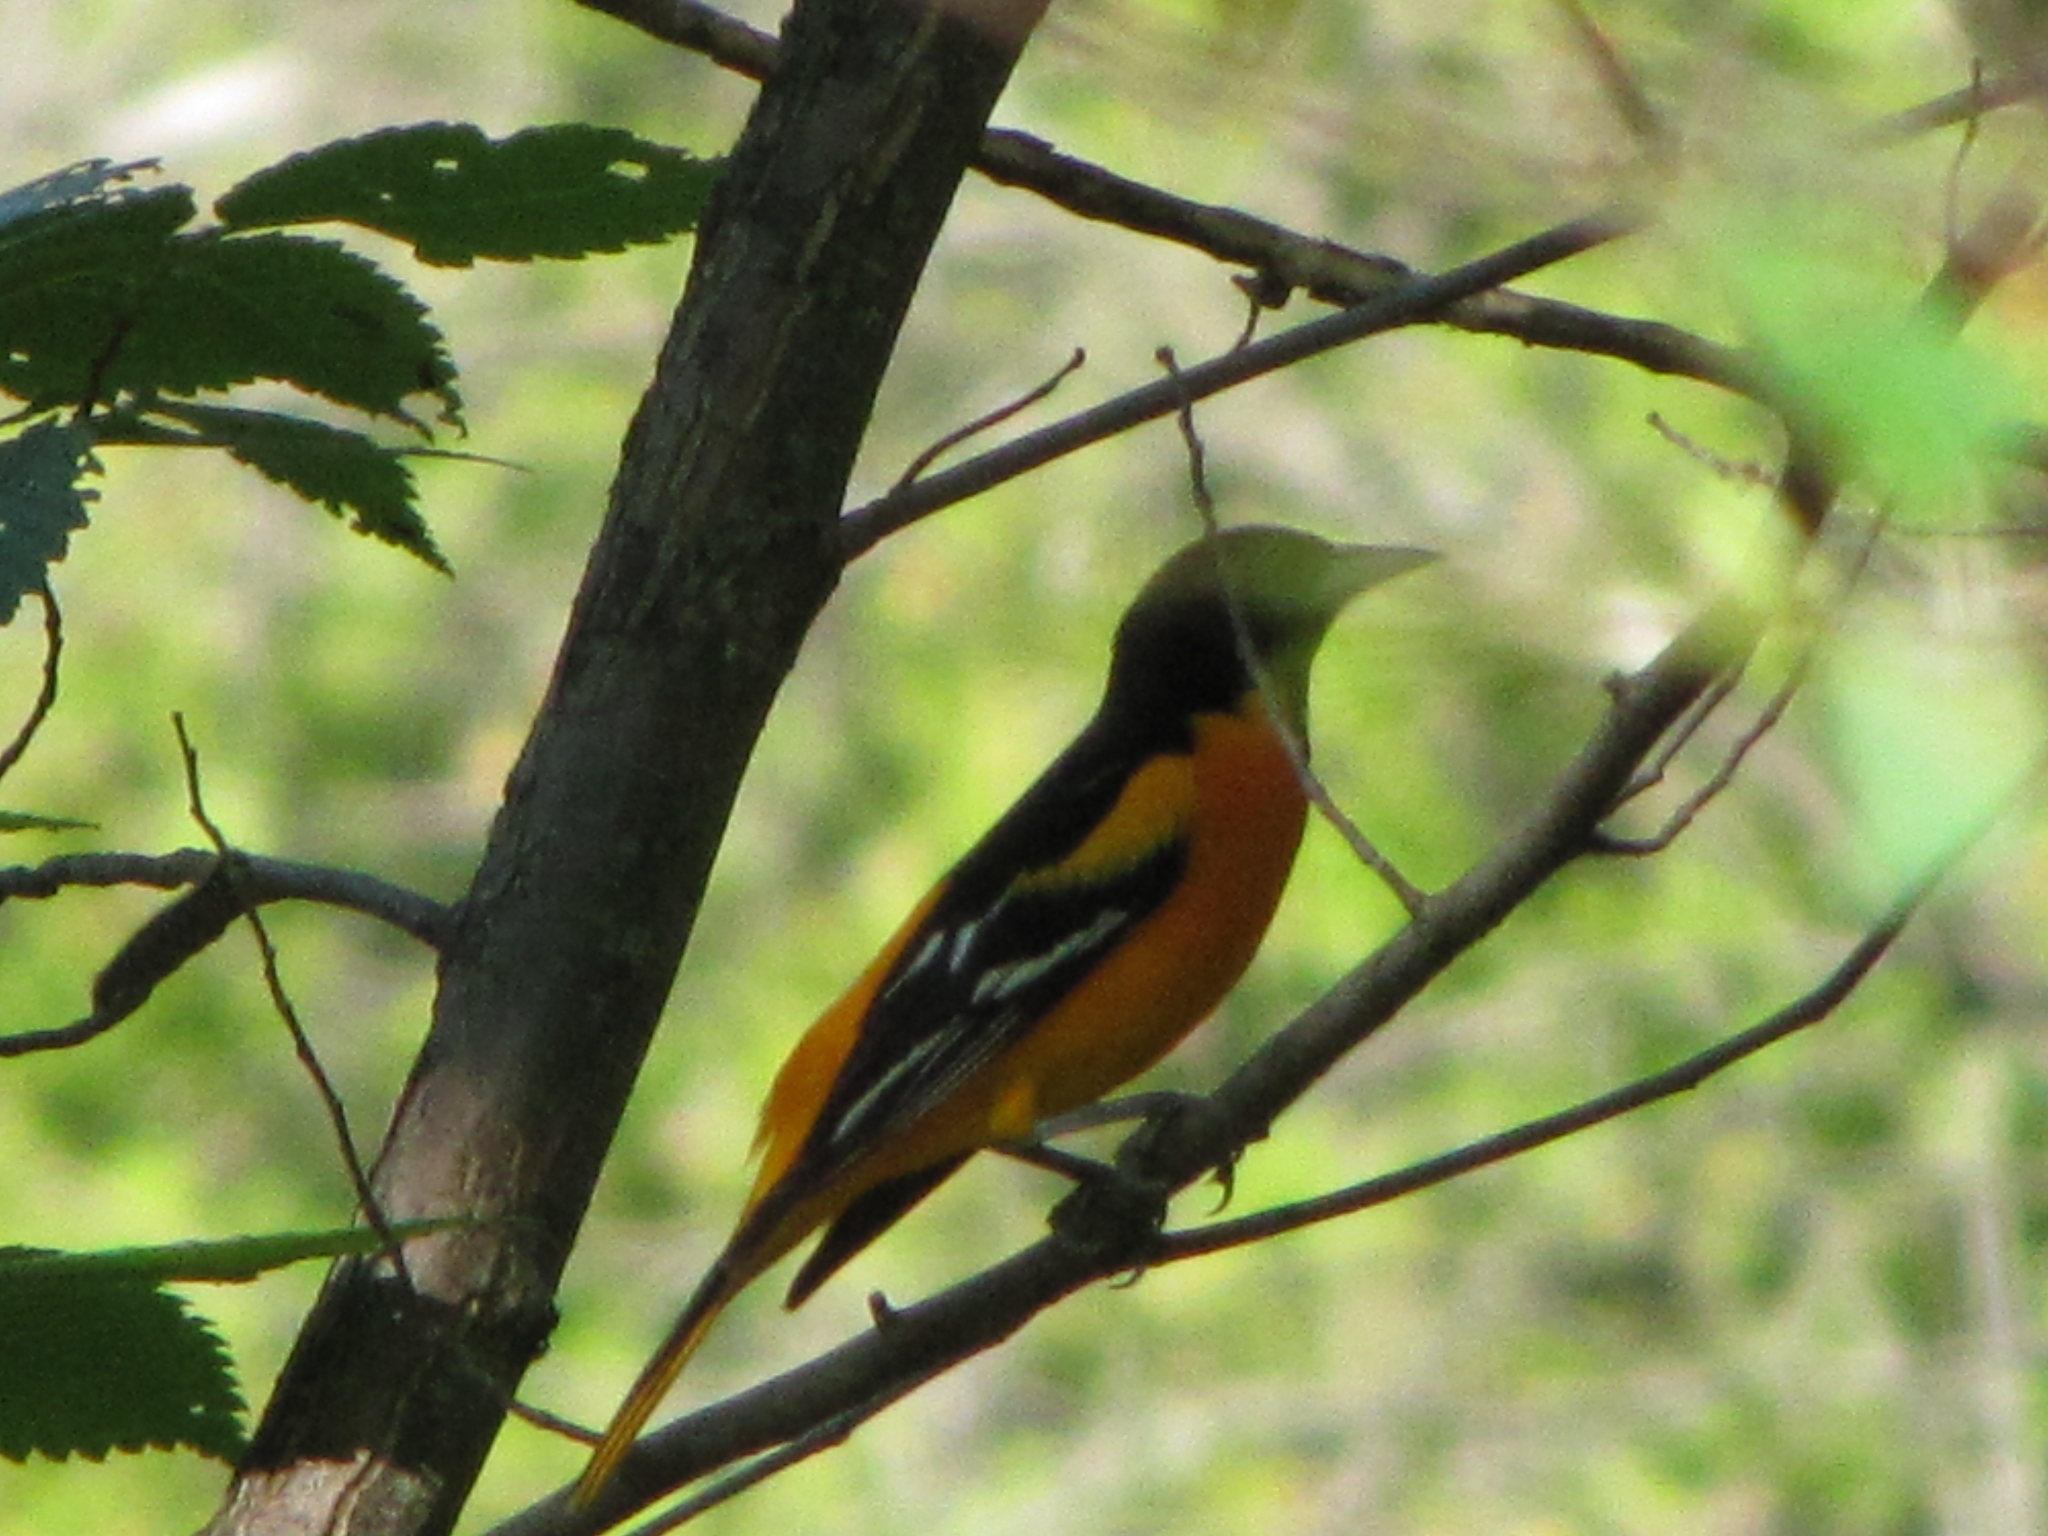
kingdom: Animalia
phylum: Chordata
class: Aves
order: Passeriformes
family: Icteridae
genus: Icterus
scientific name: Icterus galbula
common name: Baltimore oriole
